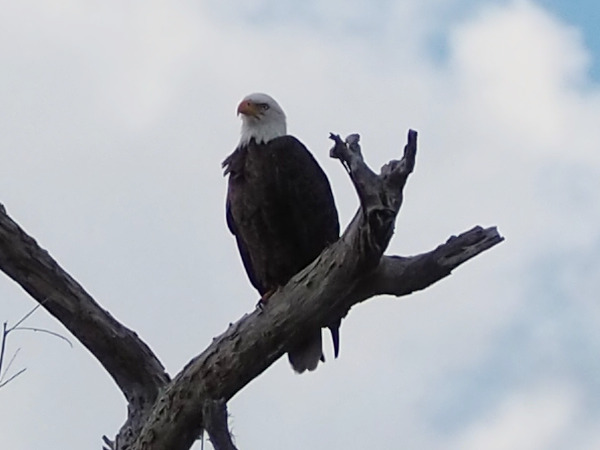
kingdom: Animalia
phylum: Chordata
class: Aves
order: Accipitriformes
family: Accipitridae
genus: Haliaeetus
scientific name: Haliaeetus leucocephalus
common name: Bald eagle
